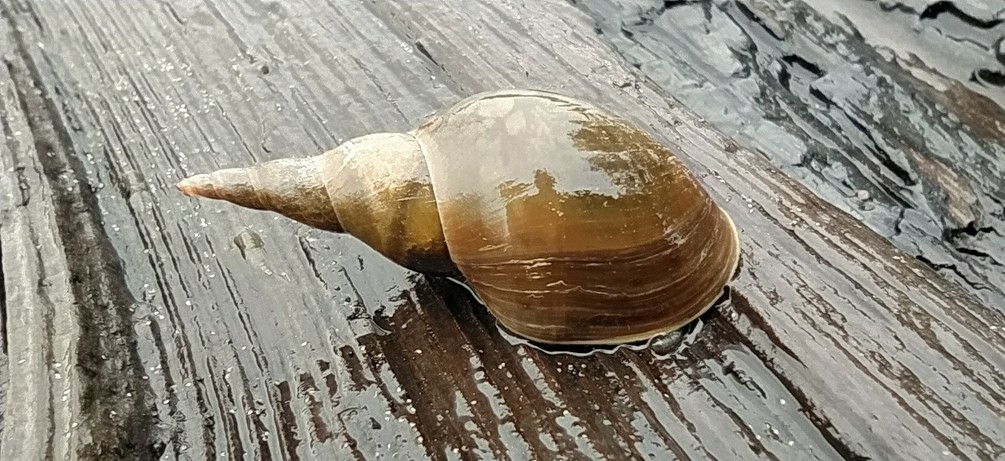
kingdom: Animalia
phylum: Mollusca
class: Gastropoda
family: Lymnaeidae
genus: Lymnaea
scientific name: Lymnaea stagnalis
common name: Great pond snail
